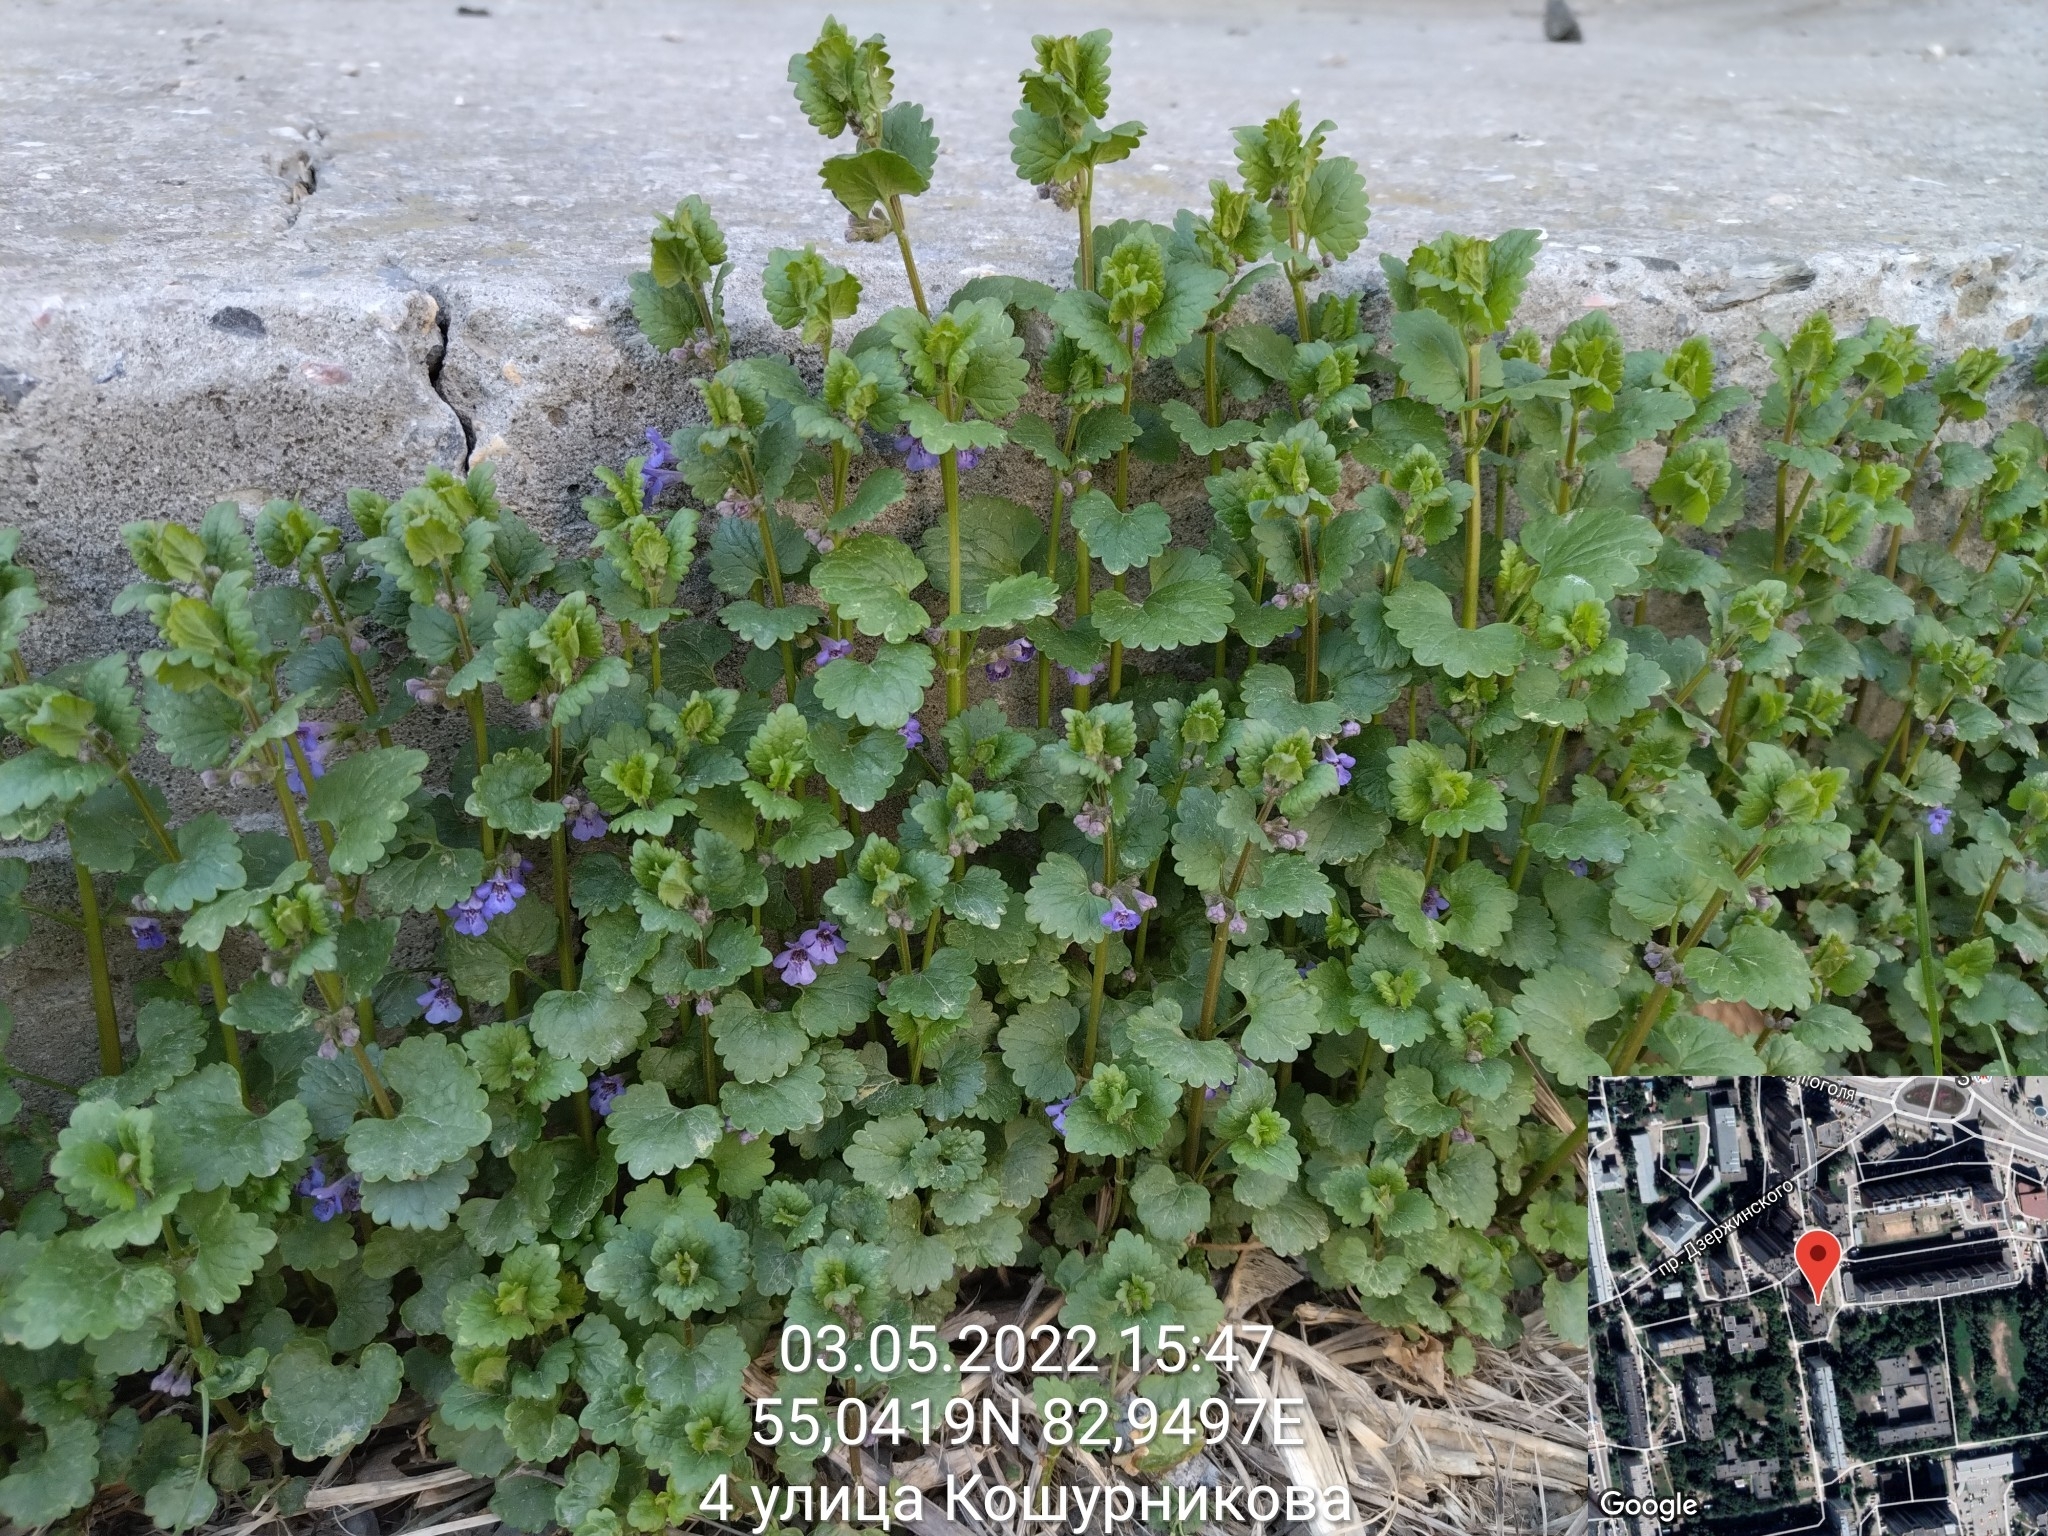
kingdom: Plantae
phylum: Tracheophyta
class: Magnoliopsida
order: Lamiales
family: Lamiaceae
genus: Glechoma
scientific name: Glechoma hederacea
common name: Ground ivy
